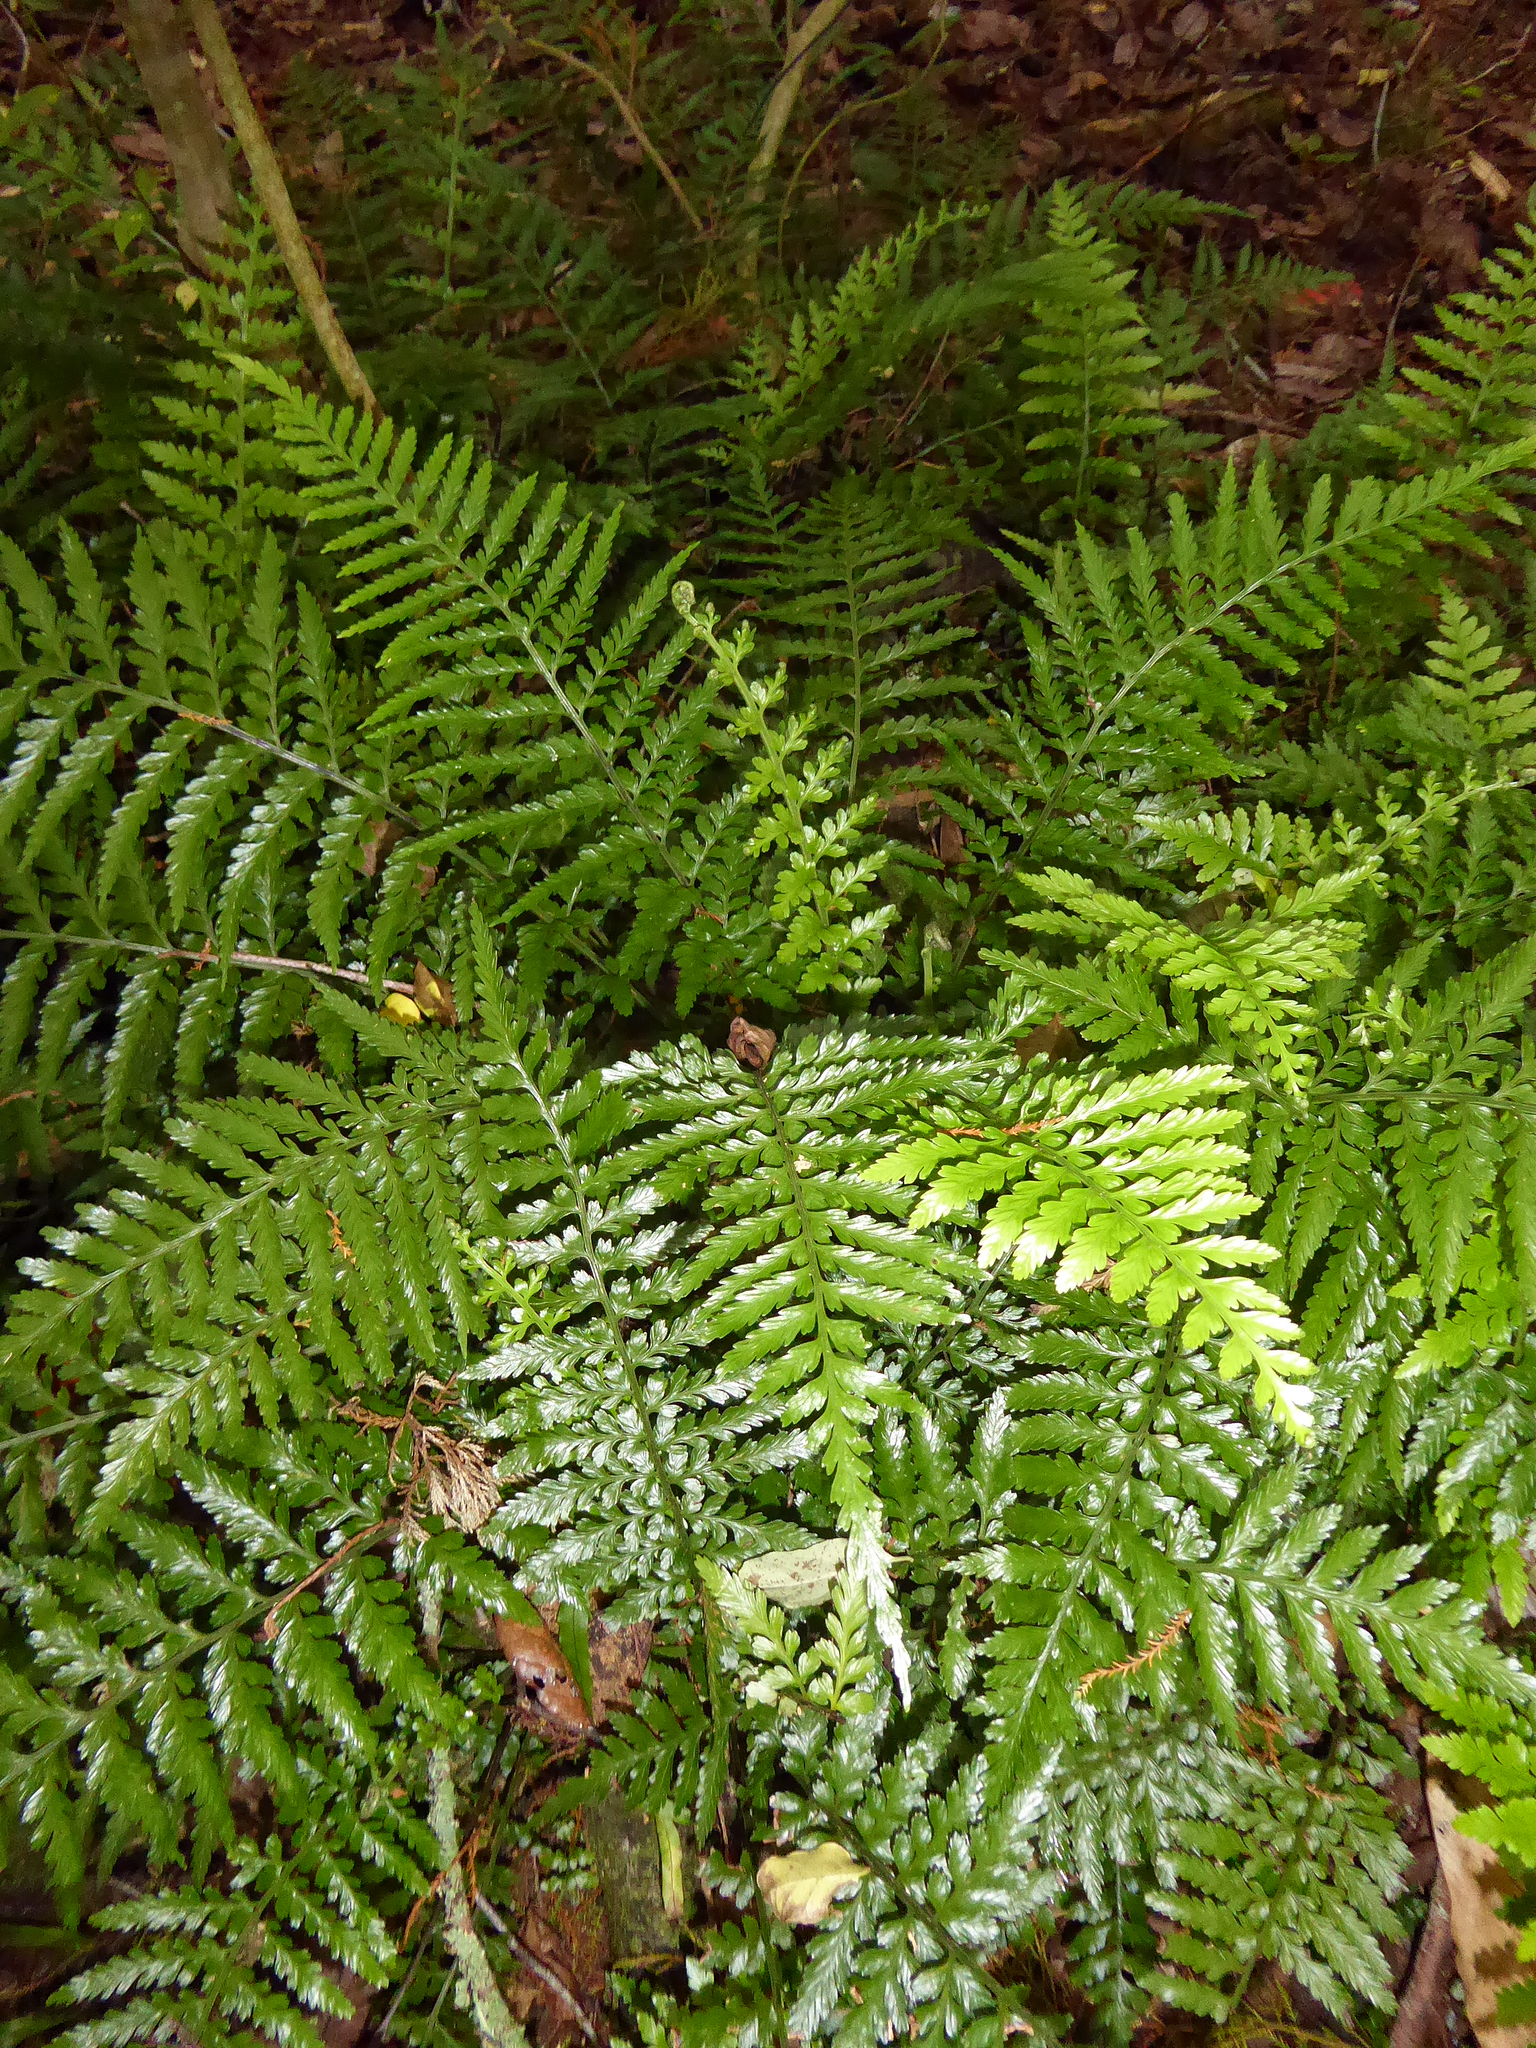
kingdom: Plantae
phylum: Tracheophyta
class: Polypodiopsida
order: Polypodiales
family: Aspleniaceae
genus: Asplenium
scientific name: Asplenium lamprophyllum
